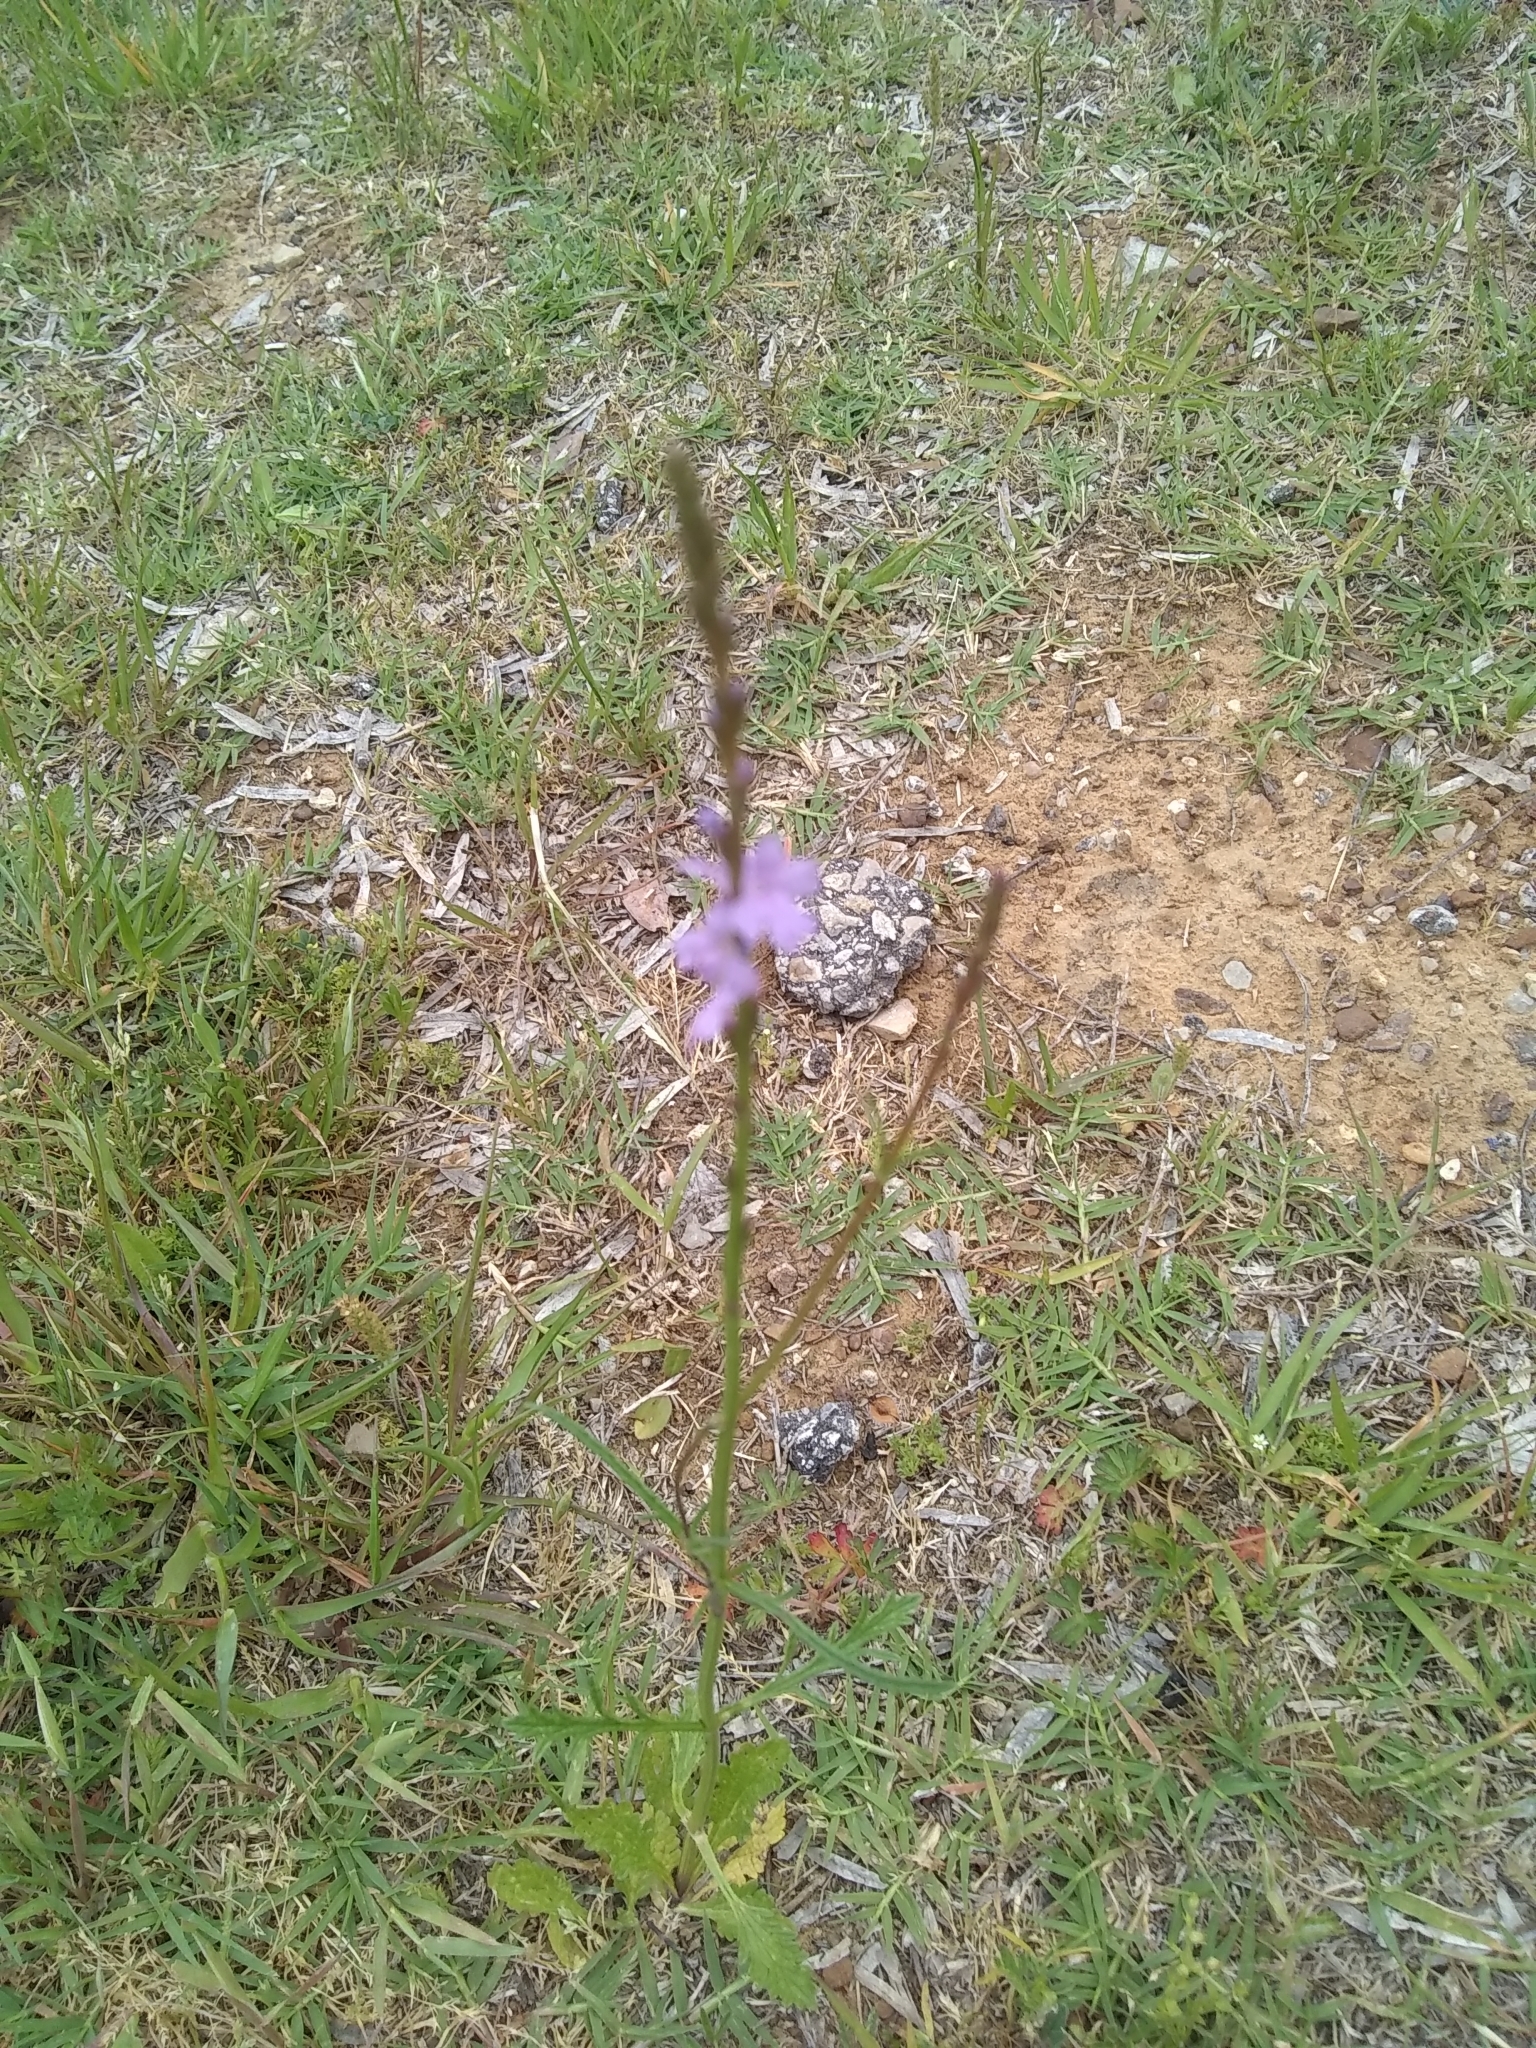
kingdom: Plantae
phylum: Tracheophyta
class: Magnoliopsida
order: Lamiales
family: Verbenaceae
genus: Verbena
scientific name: Verbena halei
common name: Texas vervain
